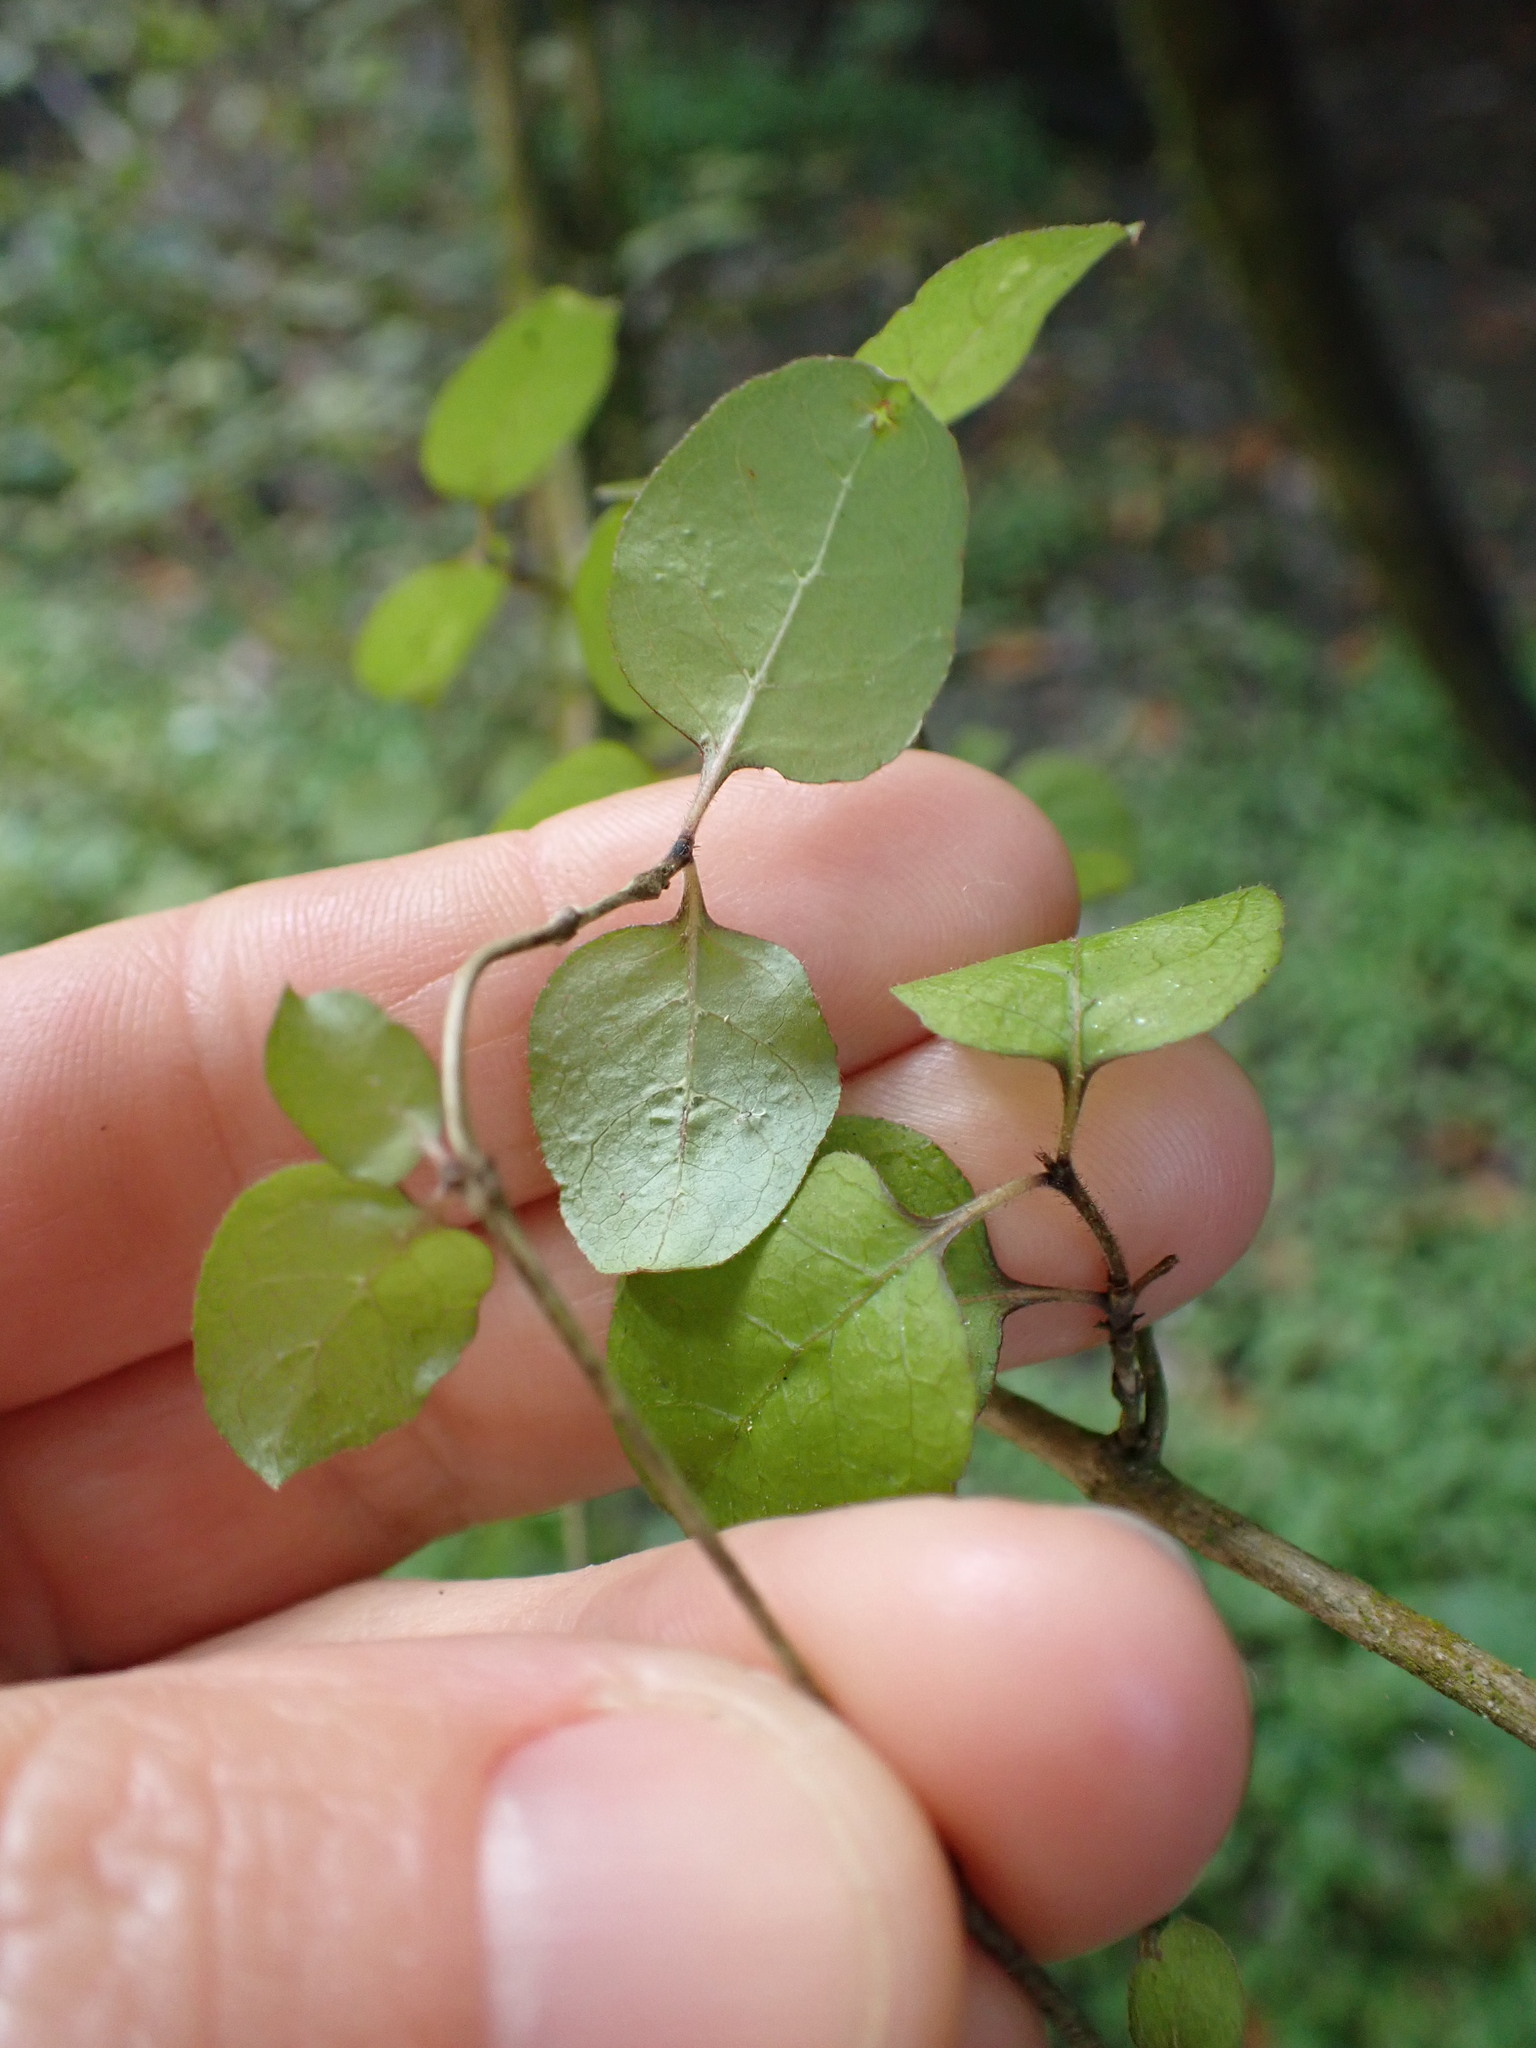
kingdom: Plantae
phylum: Tracheophyta
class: Magnoliopsida
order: Gentianales
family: Rubiaceae
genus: Coprosma
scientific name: Coprosma rotundifolia
